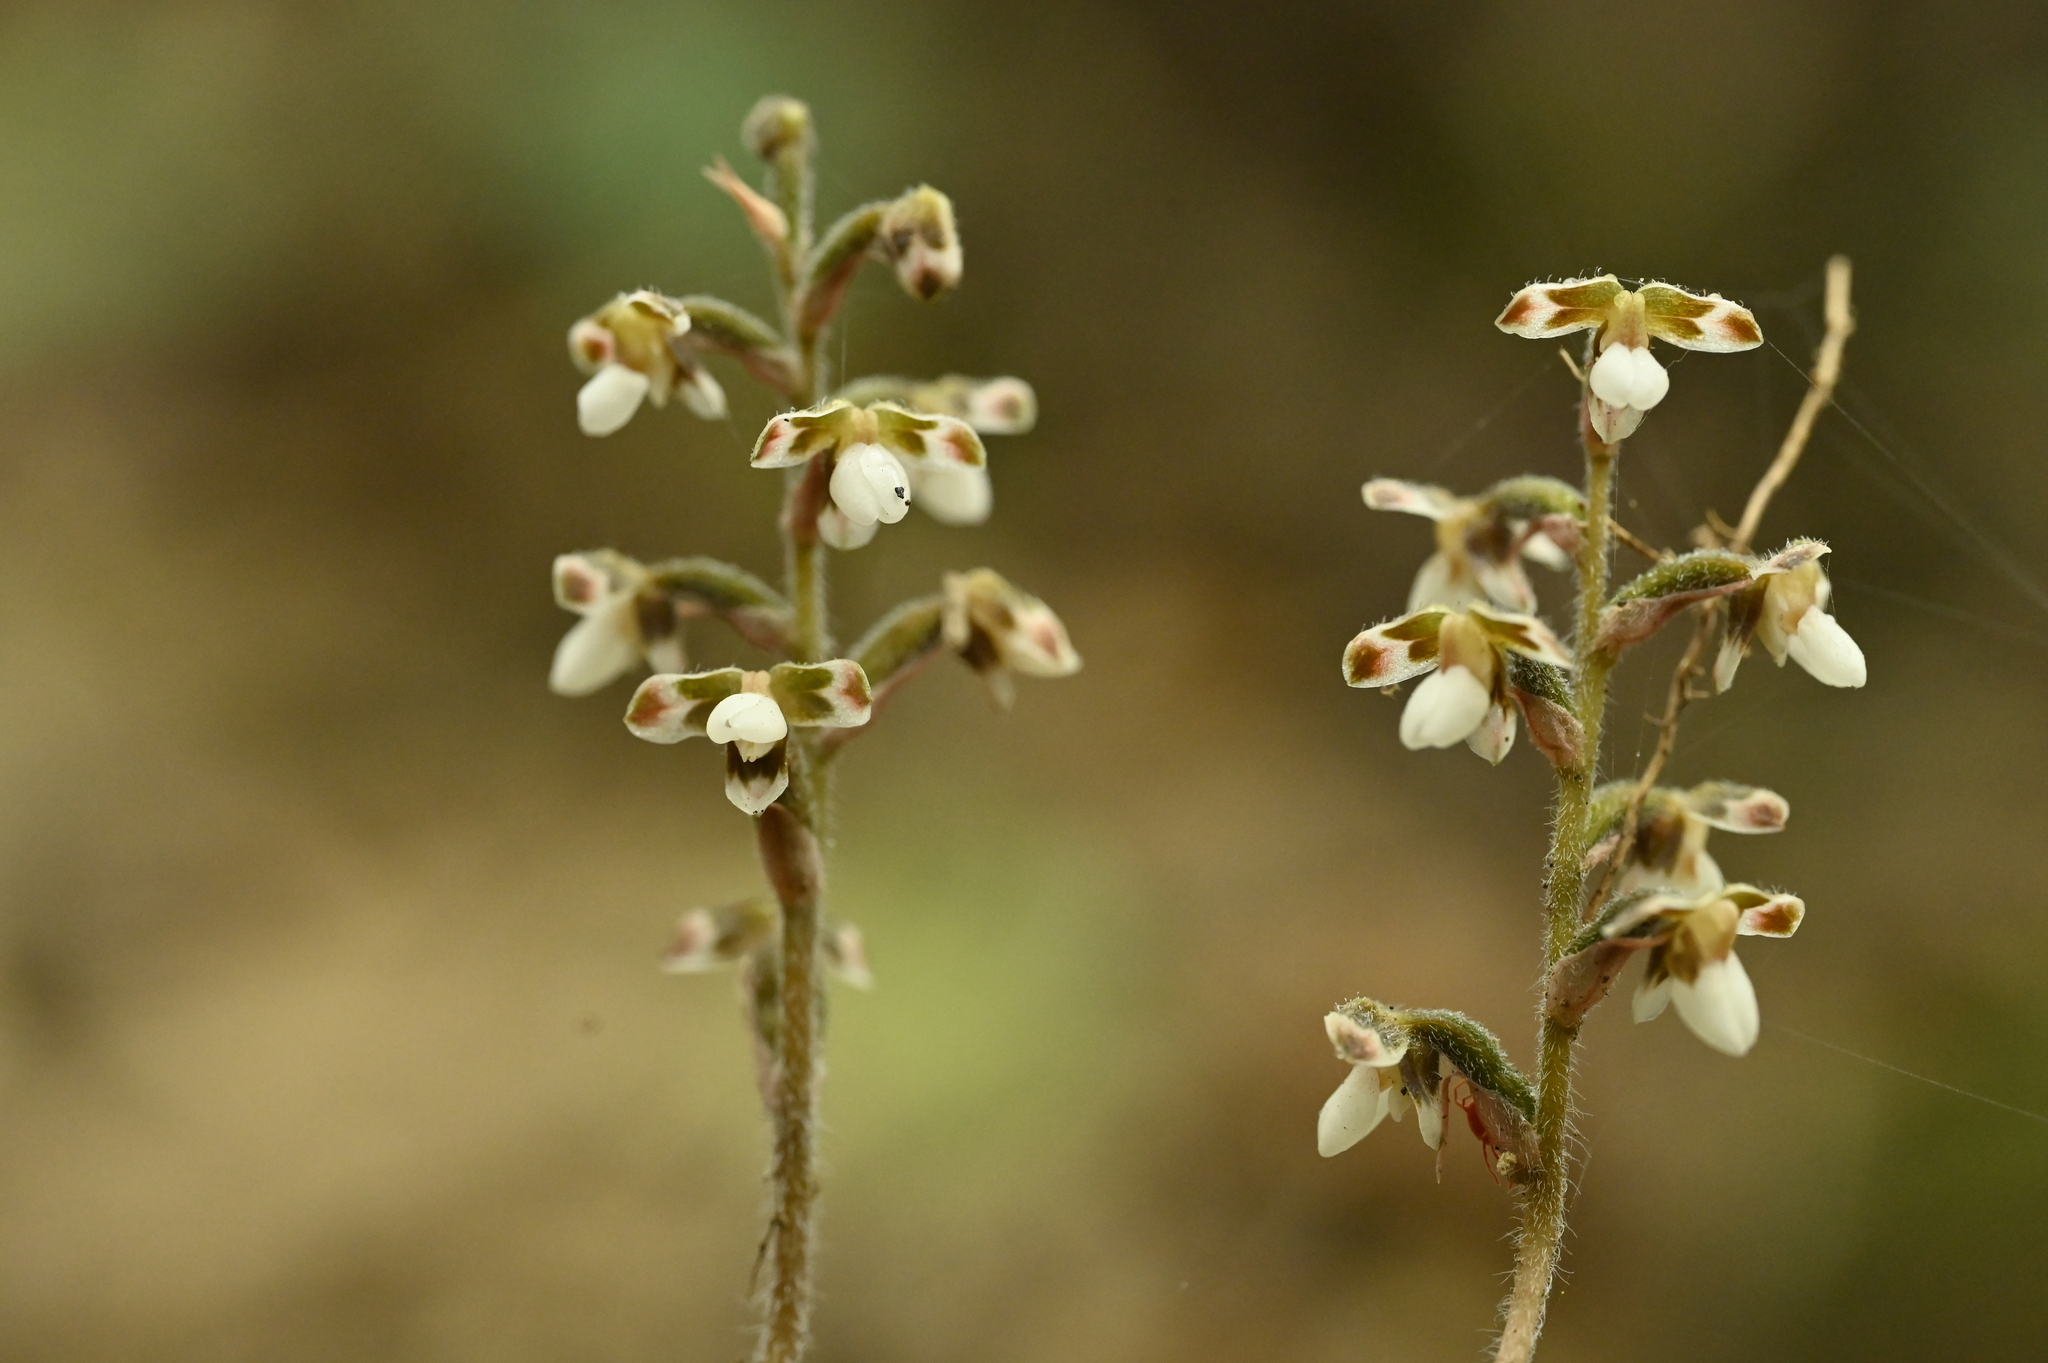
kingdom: Plantae
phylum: Tracheophyta
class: Liliopsida
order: Asparagales
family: Orchidaceae
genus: Hetaeria
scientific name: Hetaeria anomala
